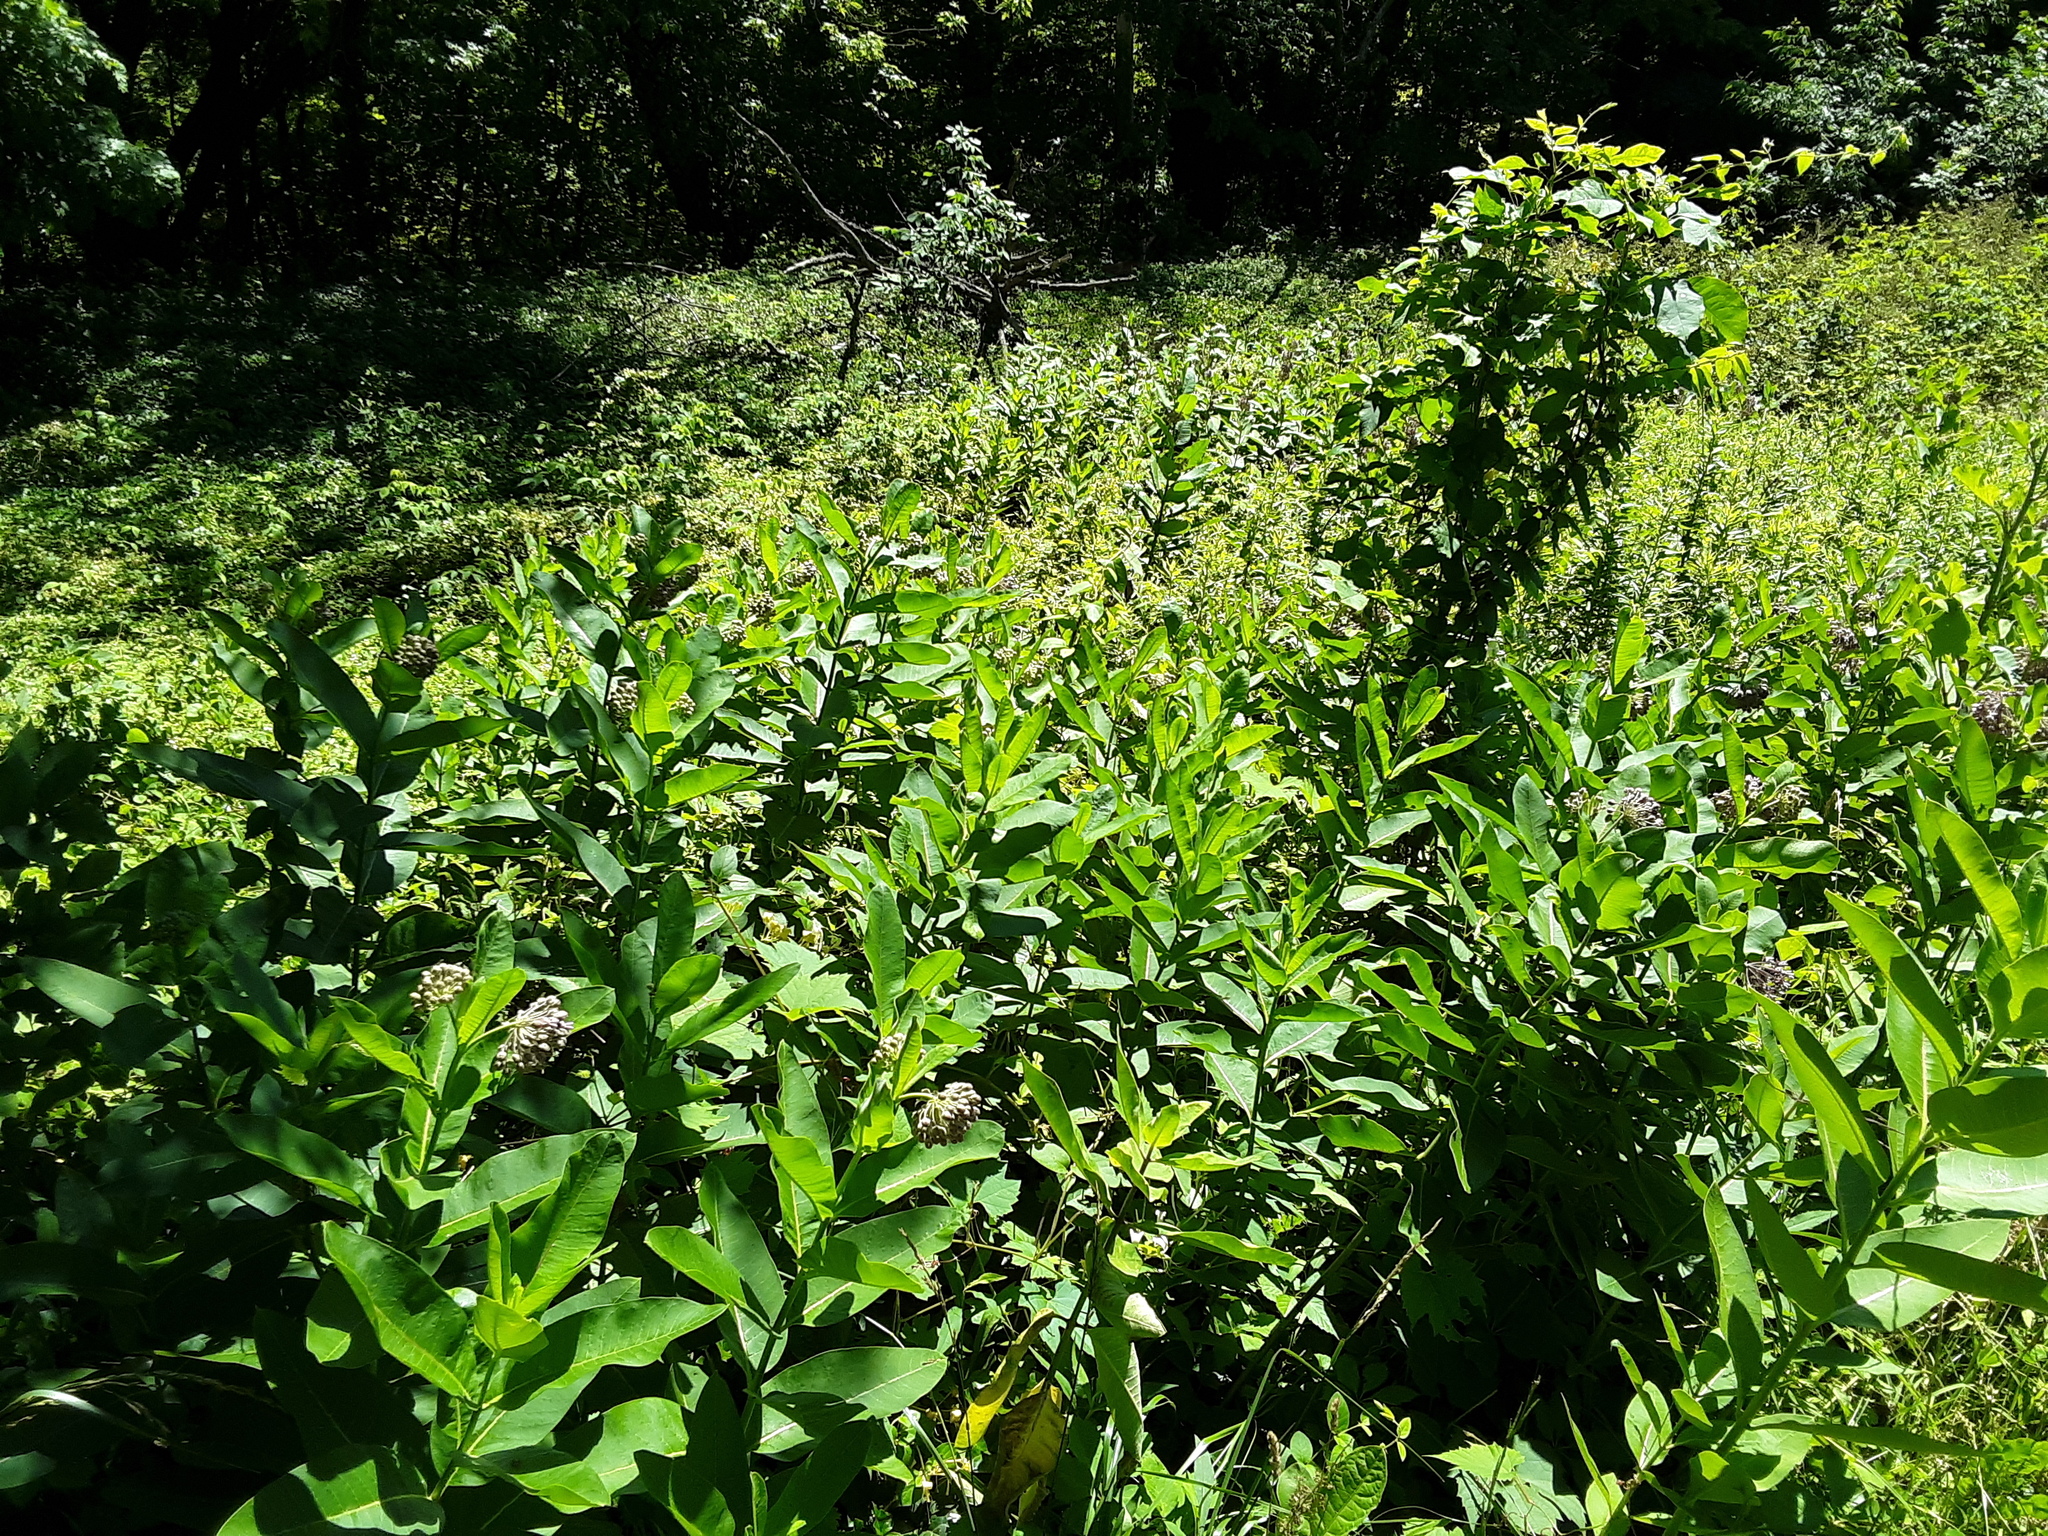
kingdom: Plantae
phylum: Tracheophyta
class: Magnoliopsida
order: Gentianales
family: Apocynaceae
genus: Asclepias
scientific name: Asclepias syriaca
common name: Common milkweed
